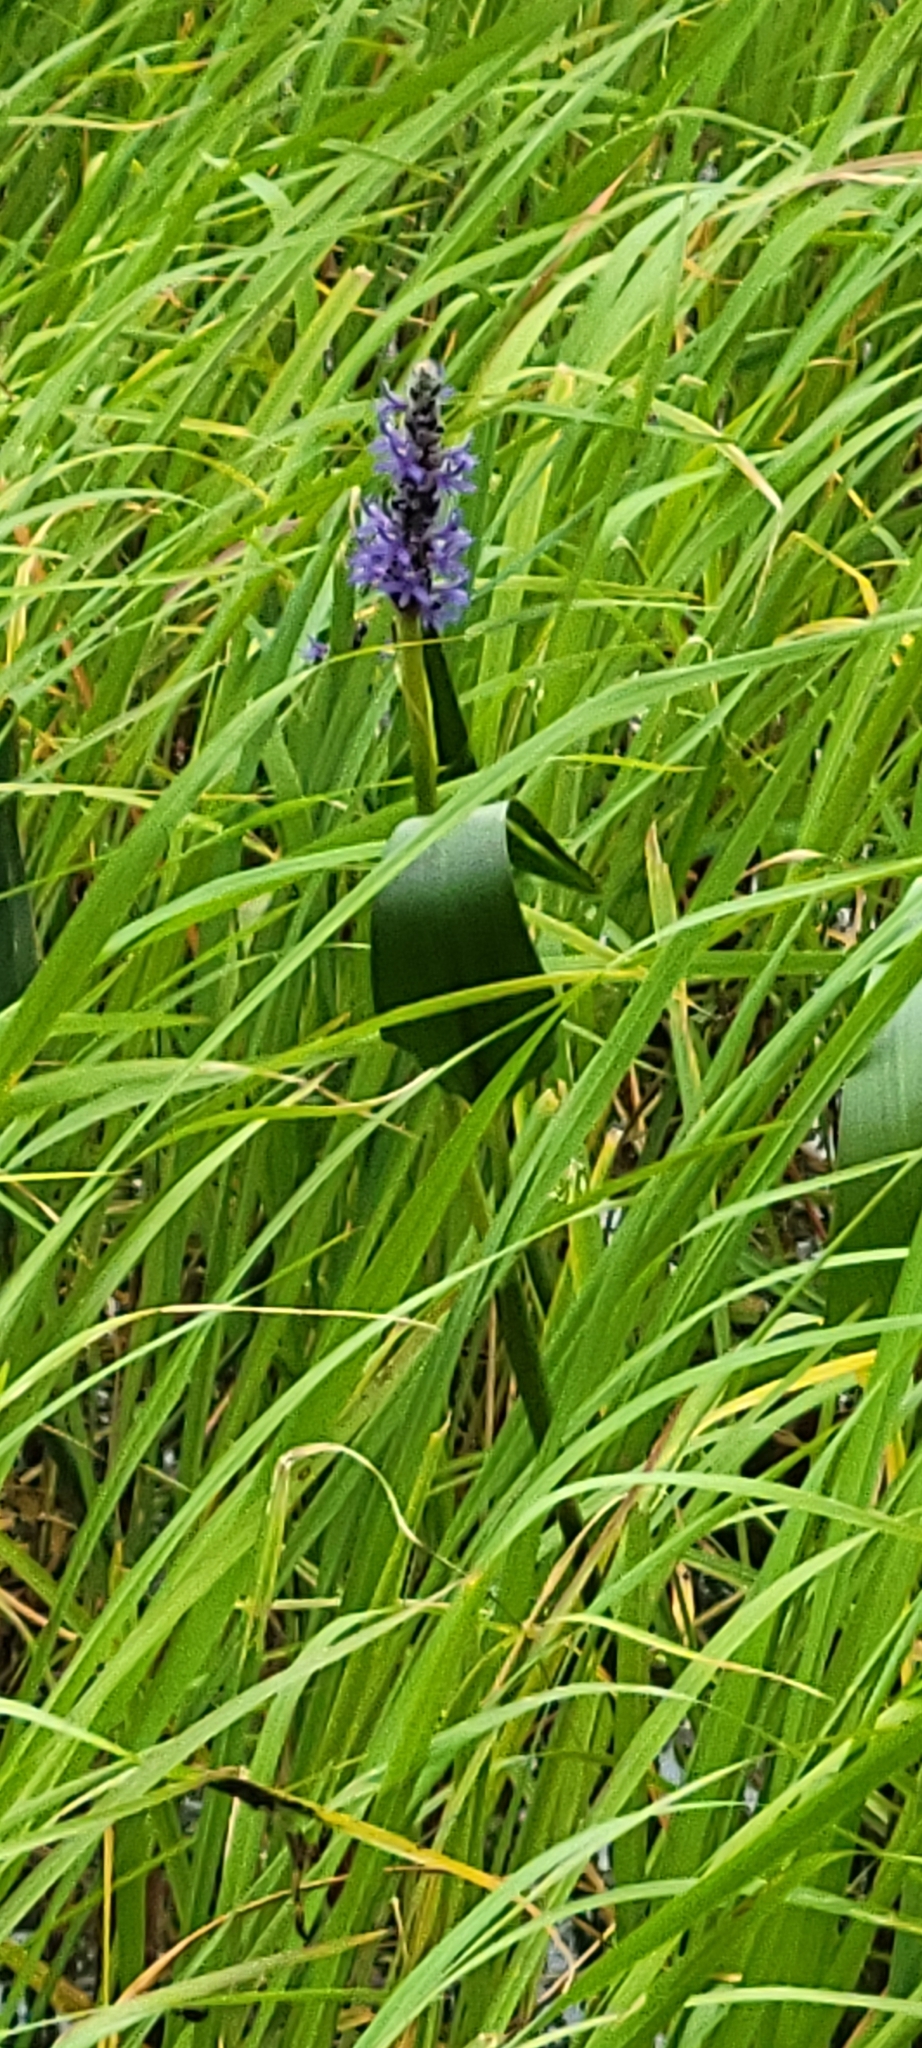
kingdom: Plantae
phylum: Tracheophyta
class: Liliopsida
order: Commelinales
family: Pontederiaceae
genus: Pontederia
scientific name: Pontederia cordata
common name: Pickerelweed
